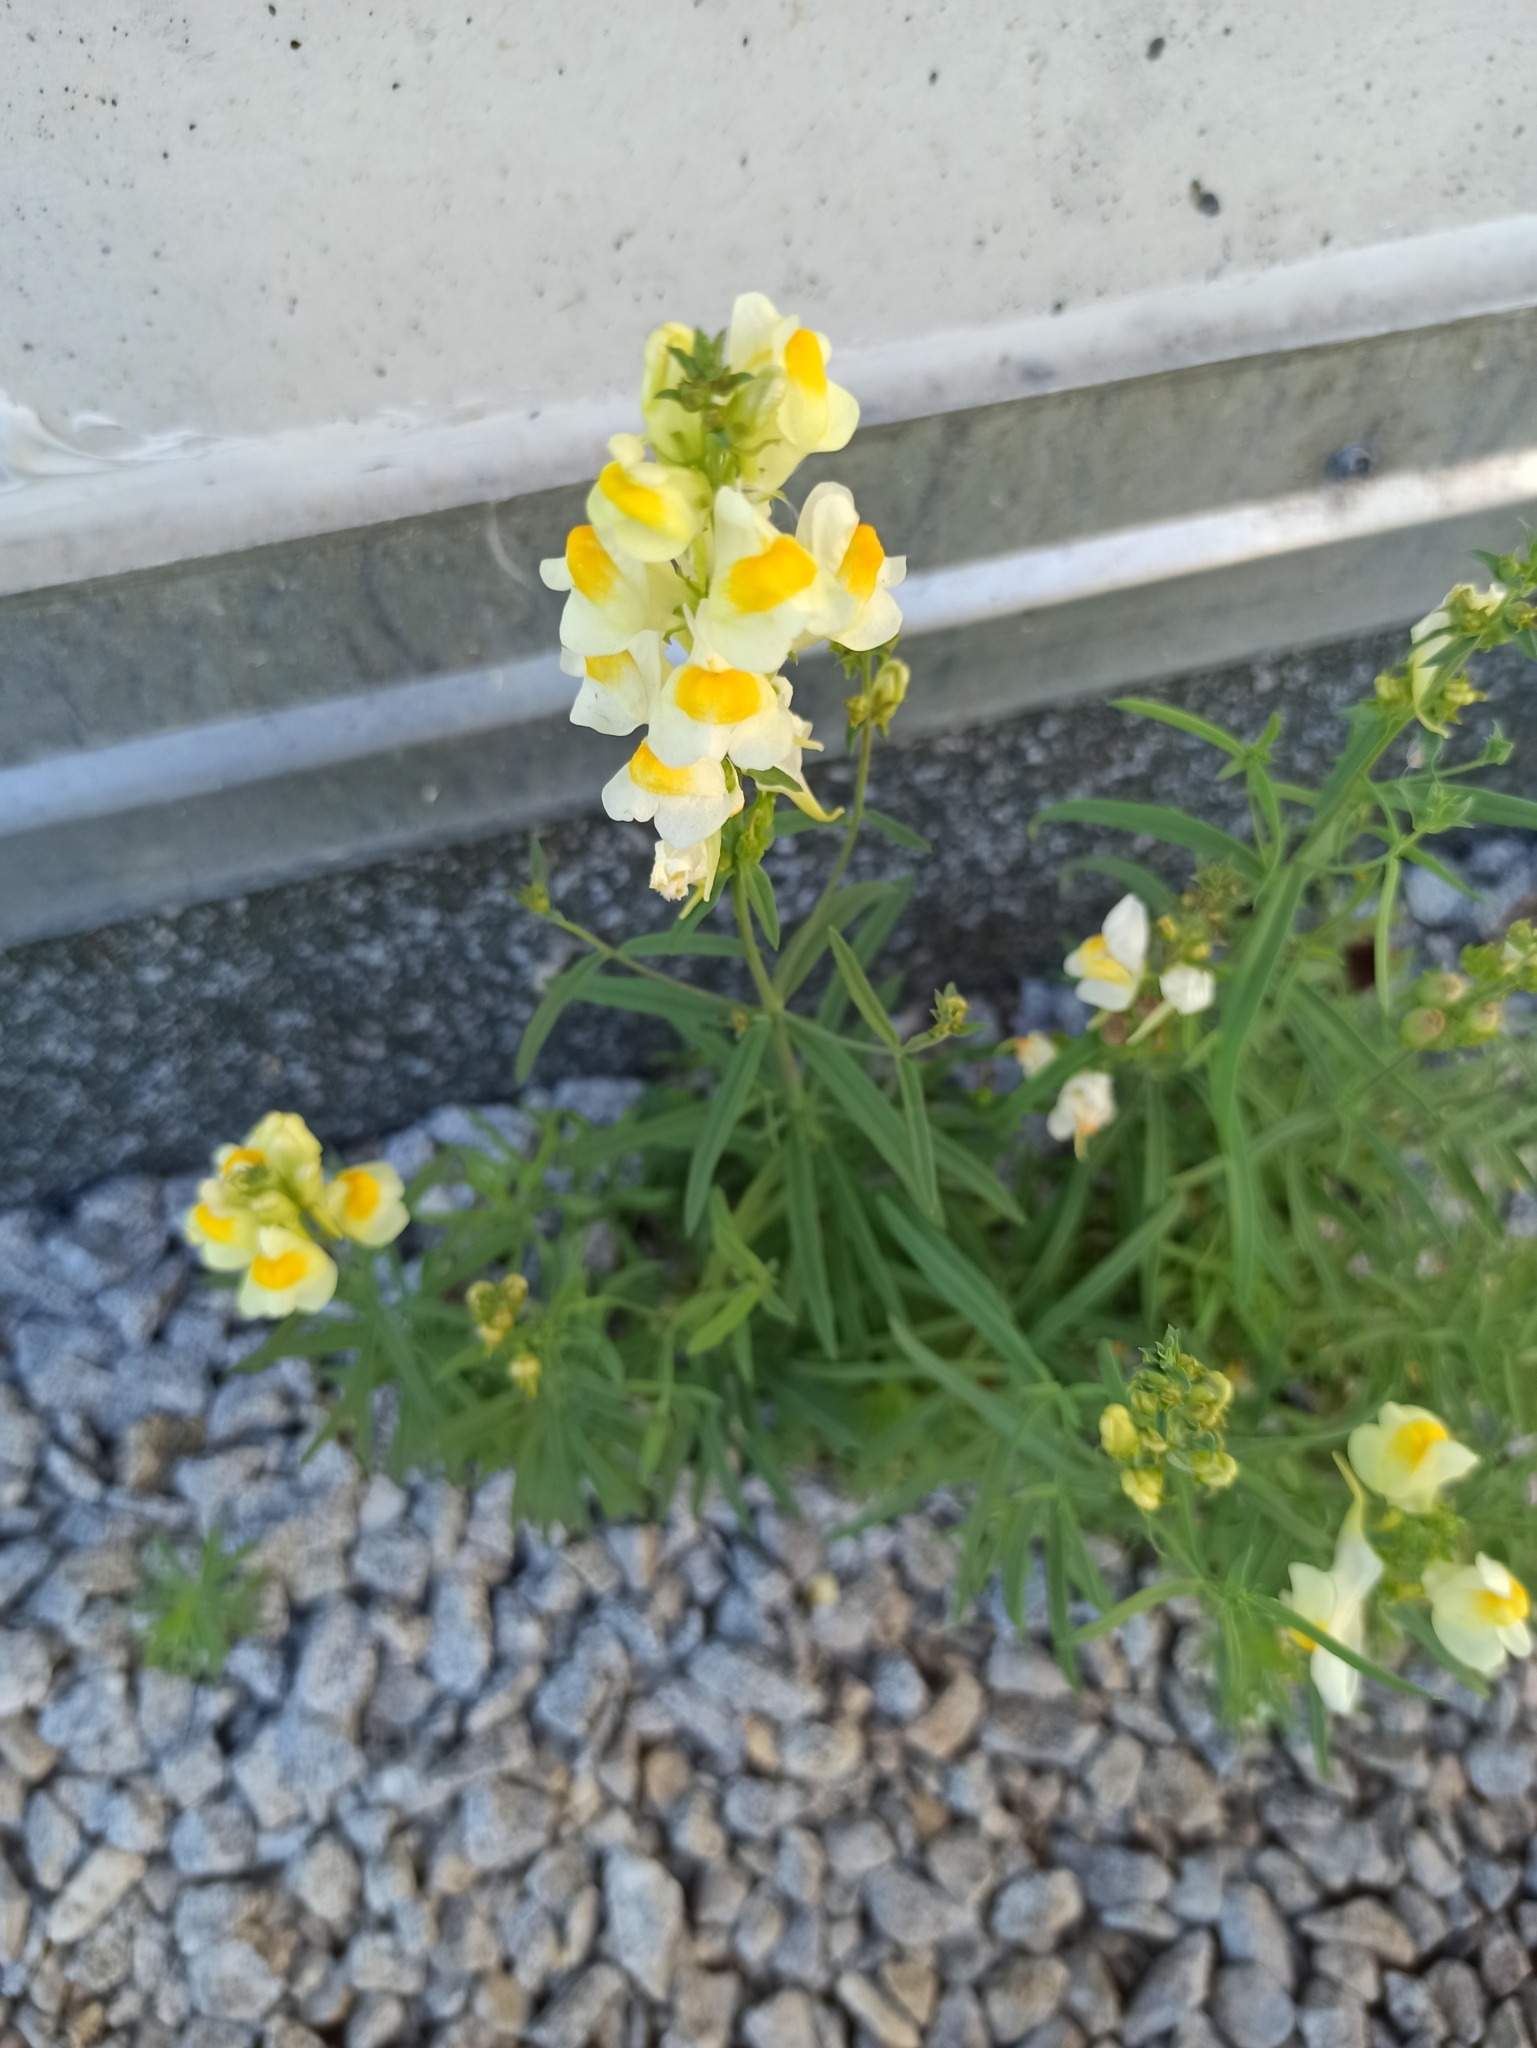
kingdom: Plantae
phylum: Tracheophyta
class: Magnoliopsida
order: Lamiales
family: Plantaginaceae
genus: Linaria
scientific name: Linaria vulgaris
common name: Butter and eggs
